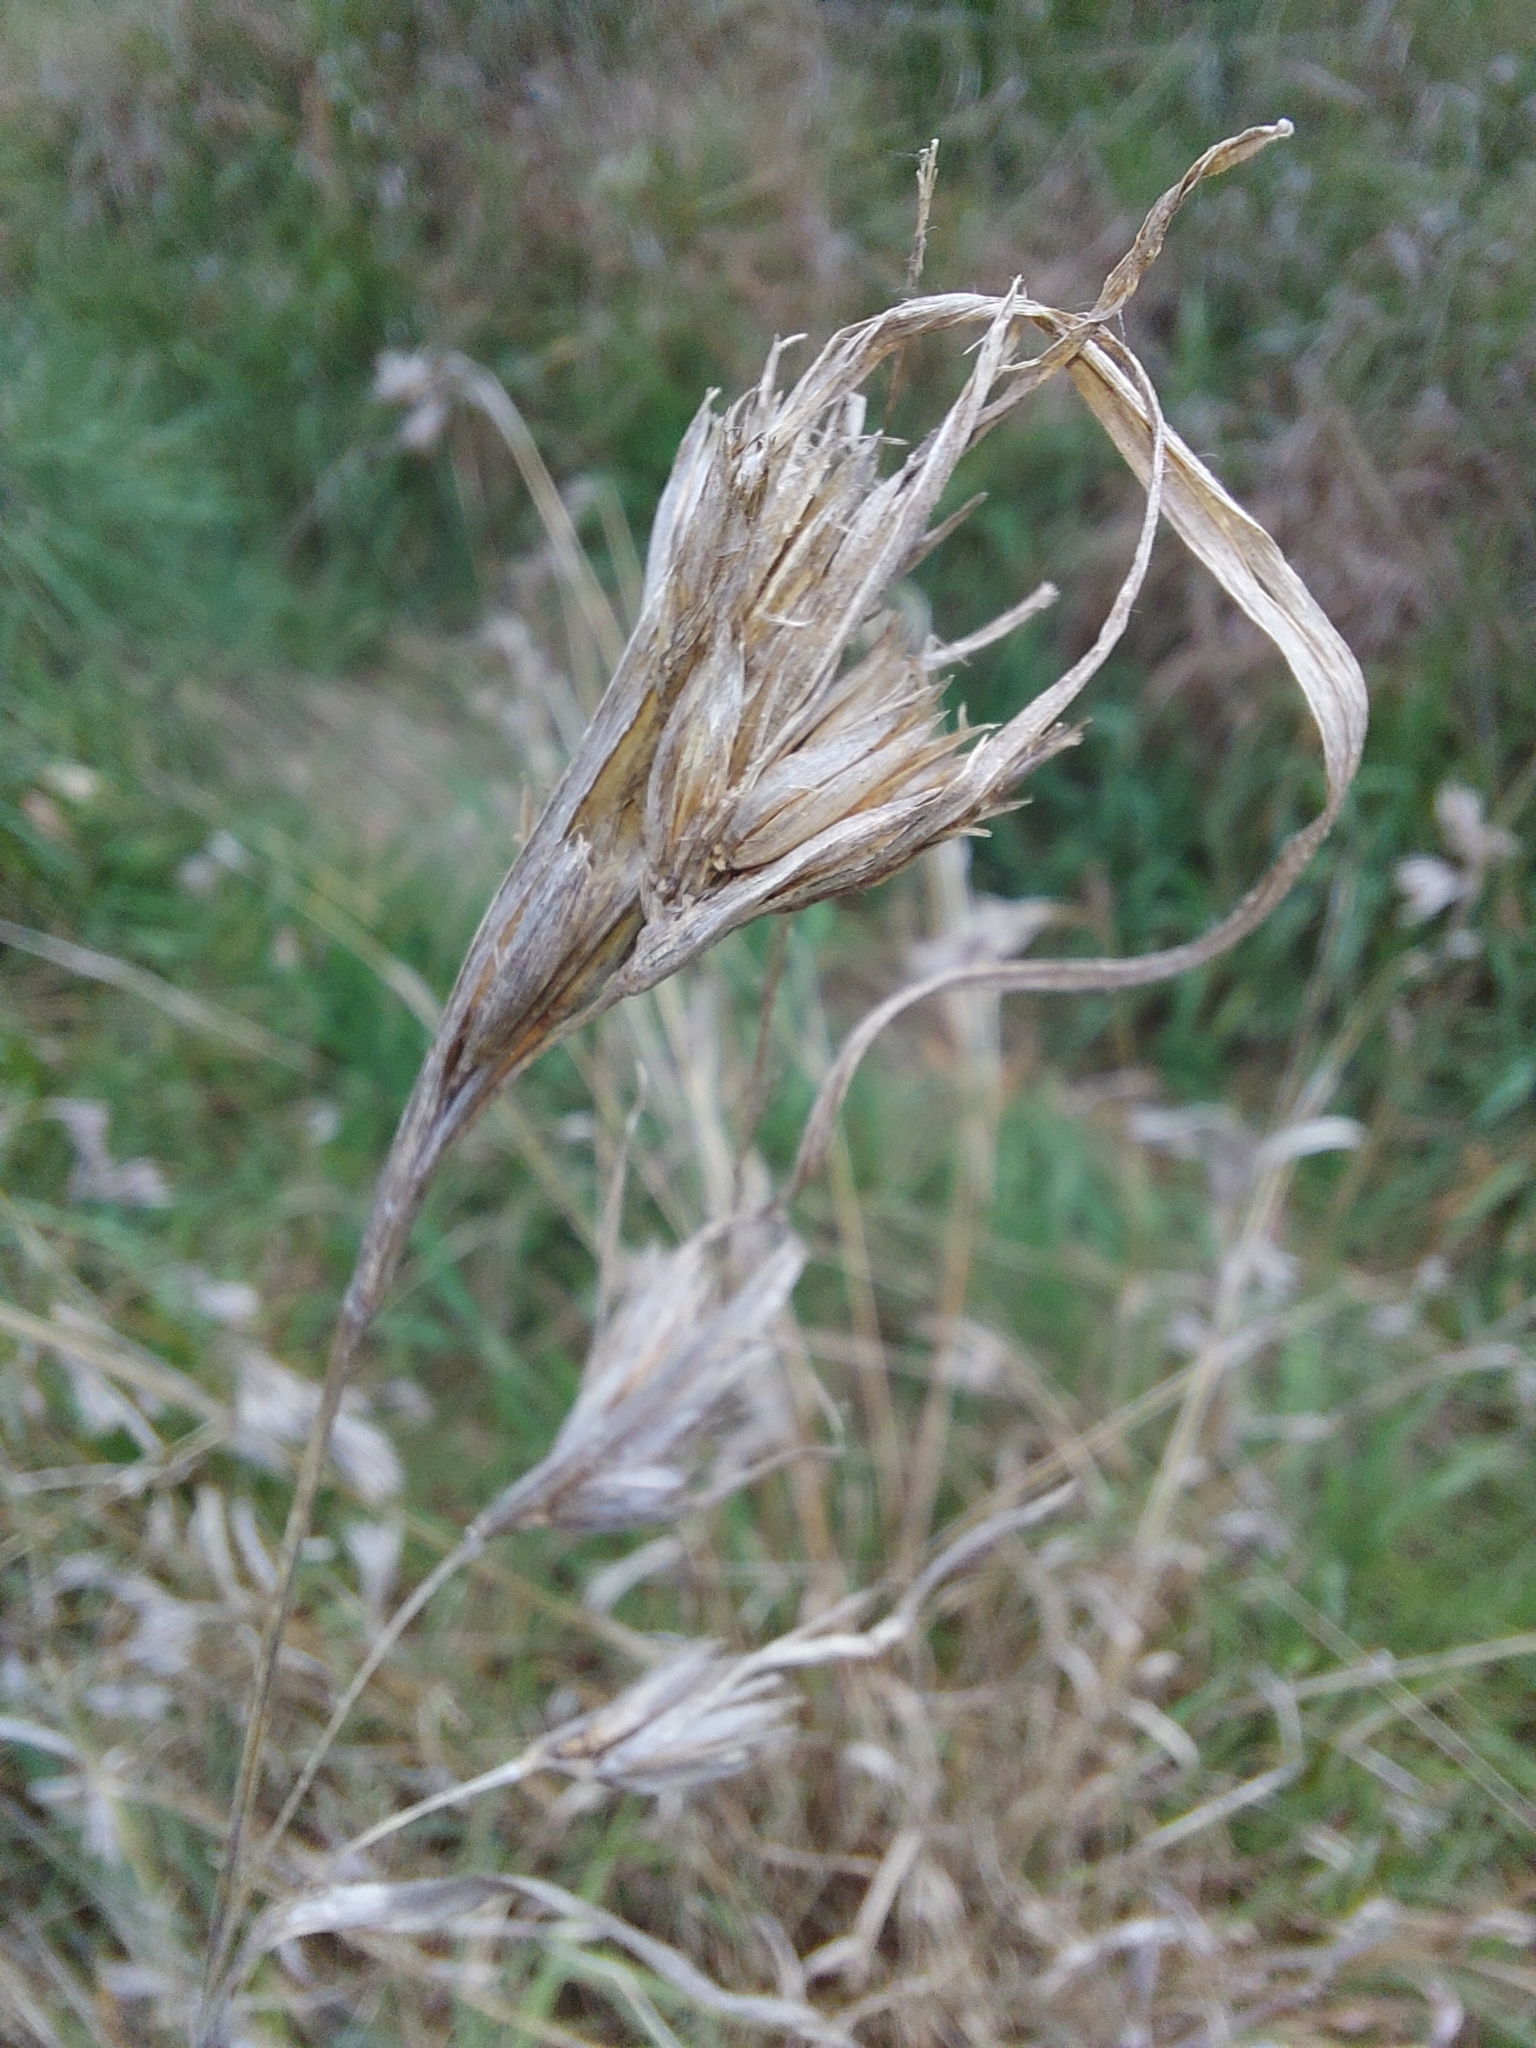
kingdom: Plantae
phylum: Tracheophyta
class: Liliopsida
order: Poales
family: Poaceae
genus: Themeda
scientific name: Themeda triandra
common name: Kangaroo grass
